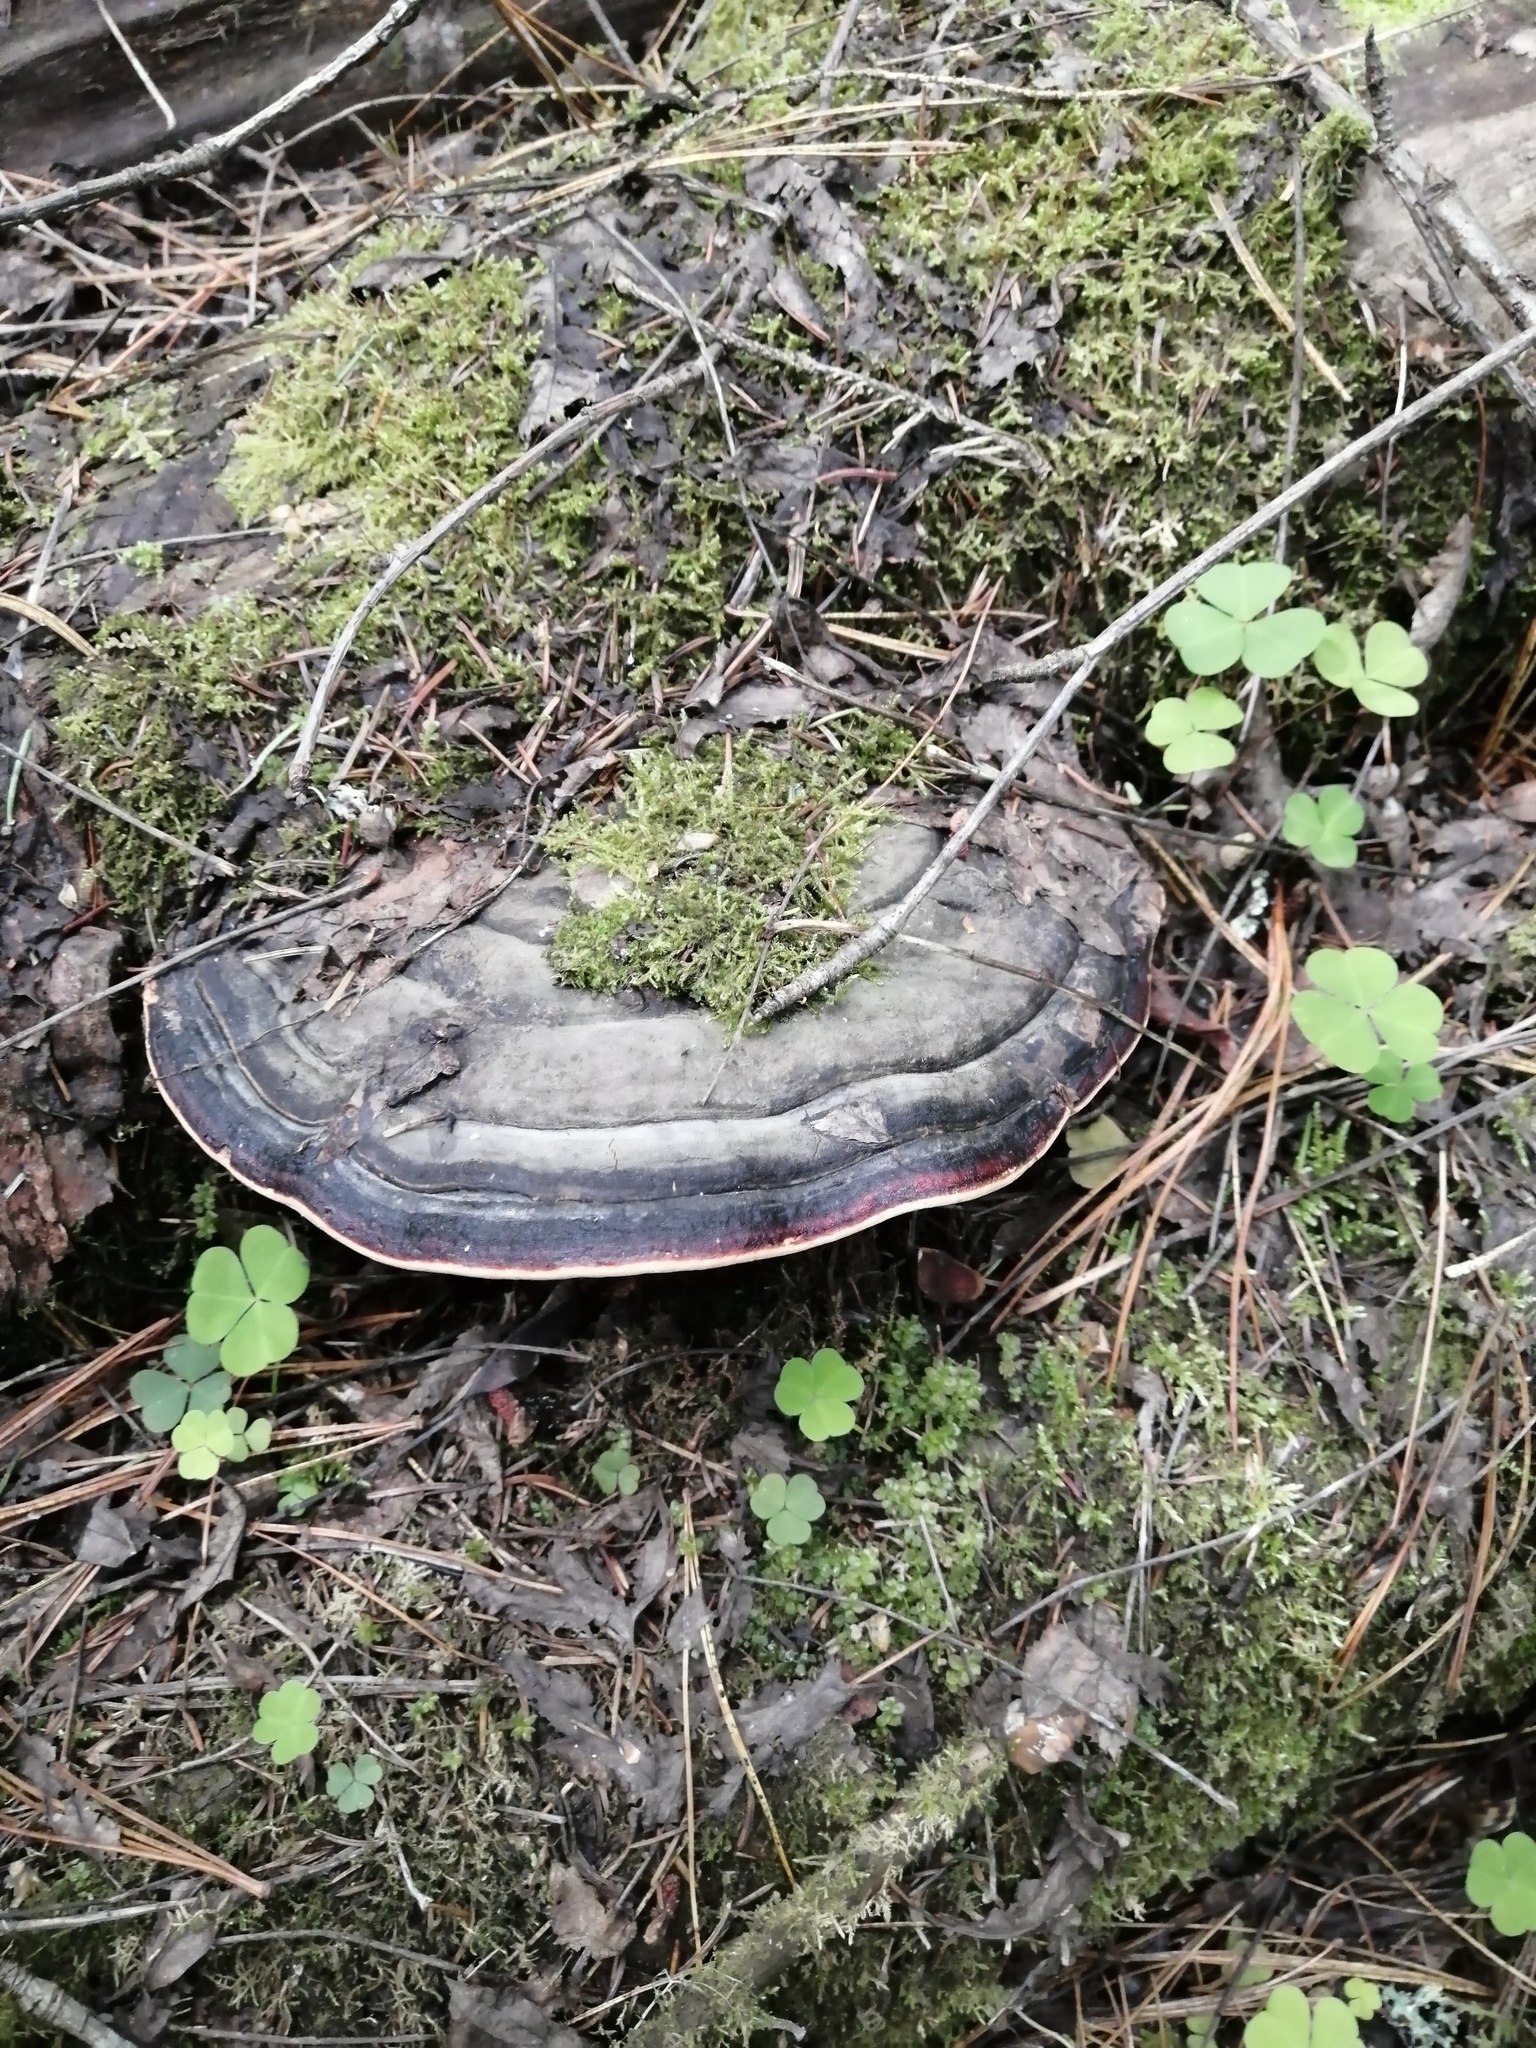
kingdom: Fungi
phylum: Basidiomycota
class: Agaricomycetes
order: Polyporales
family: Fomitopsidaceae
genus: Fomitopsis
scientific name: Fomitopsis pinicola
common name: Red-belted bracket
